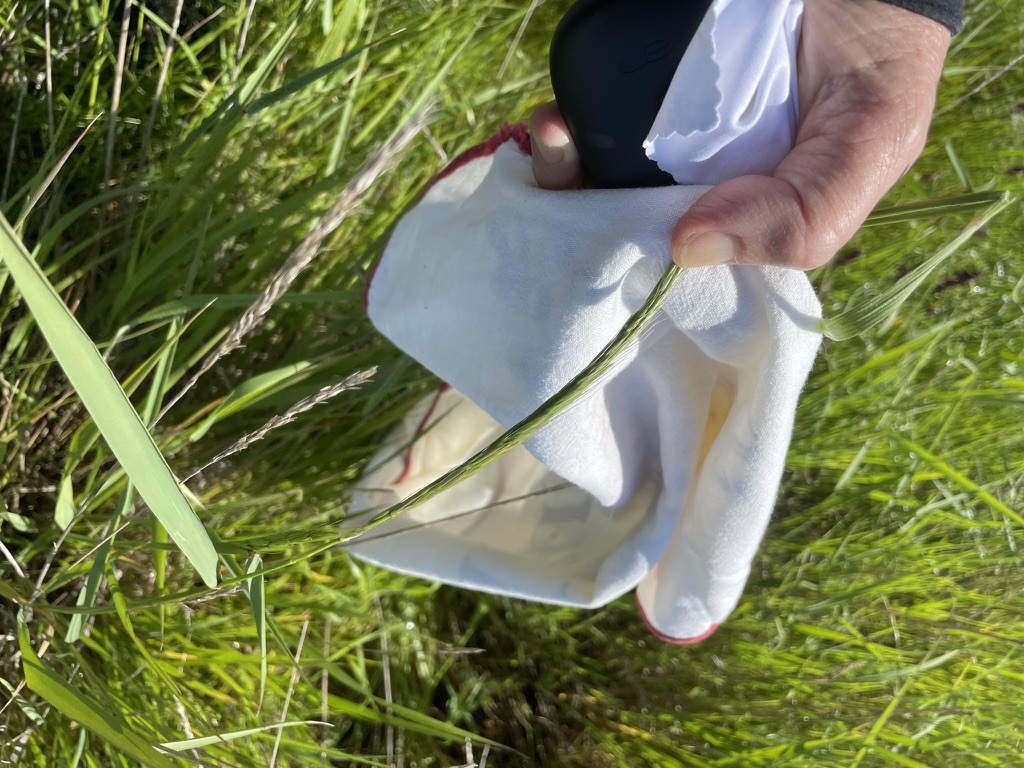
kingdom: Plantae
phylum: Tracheophyta
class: Liliopsida
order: Poales
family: Poaceae
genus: Elymus
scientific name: Elymus glaucus
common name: Blue wild rye
